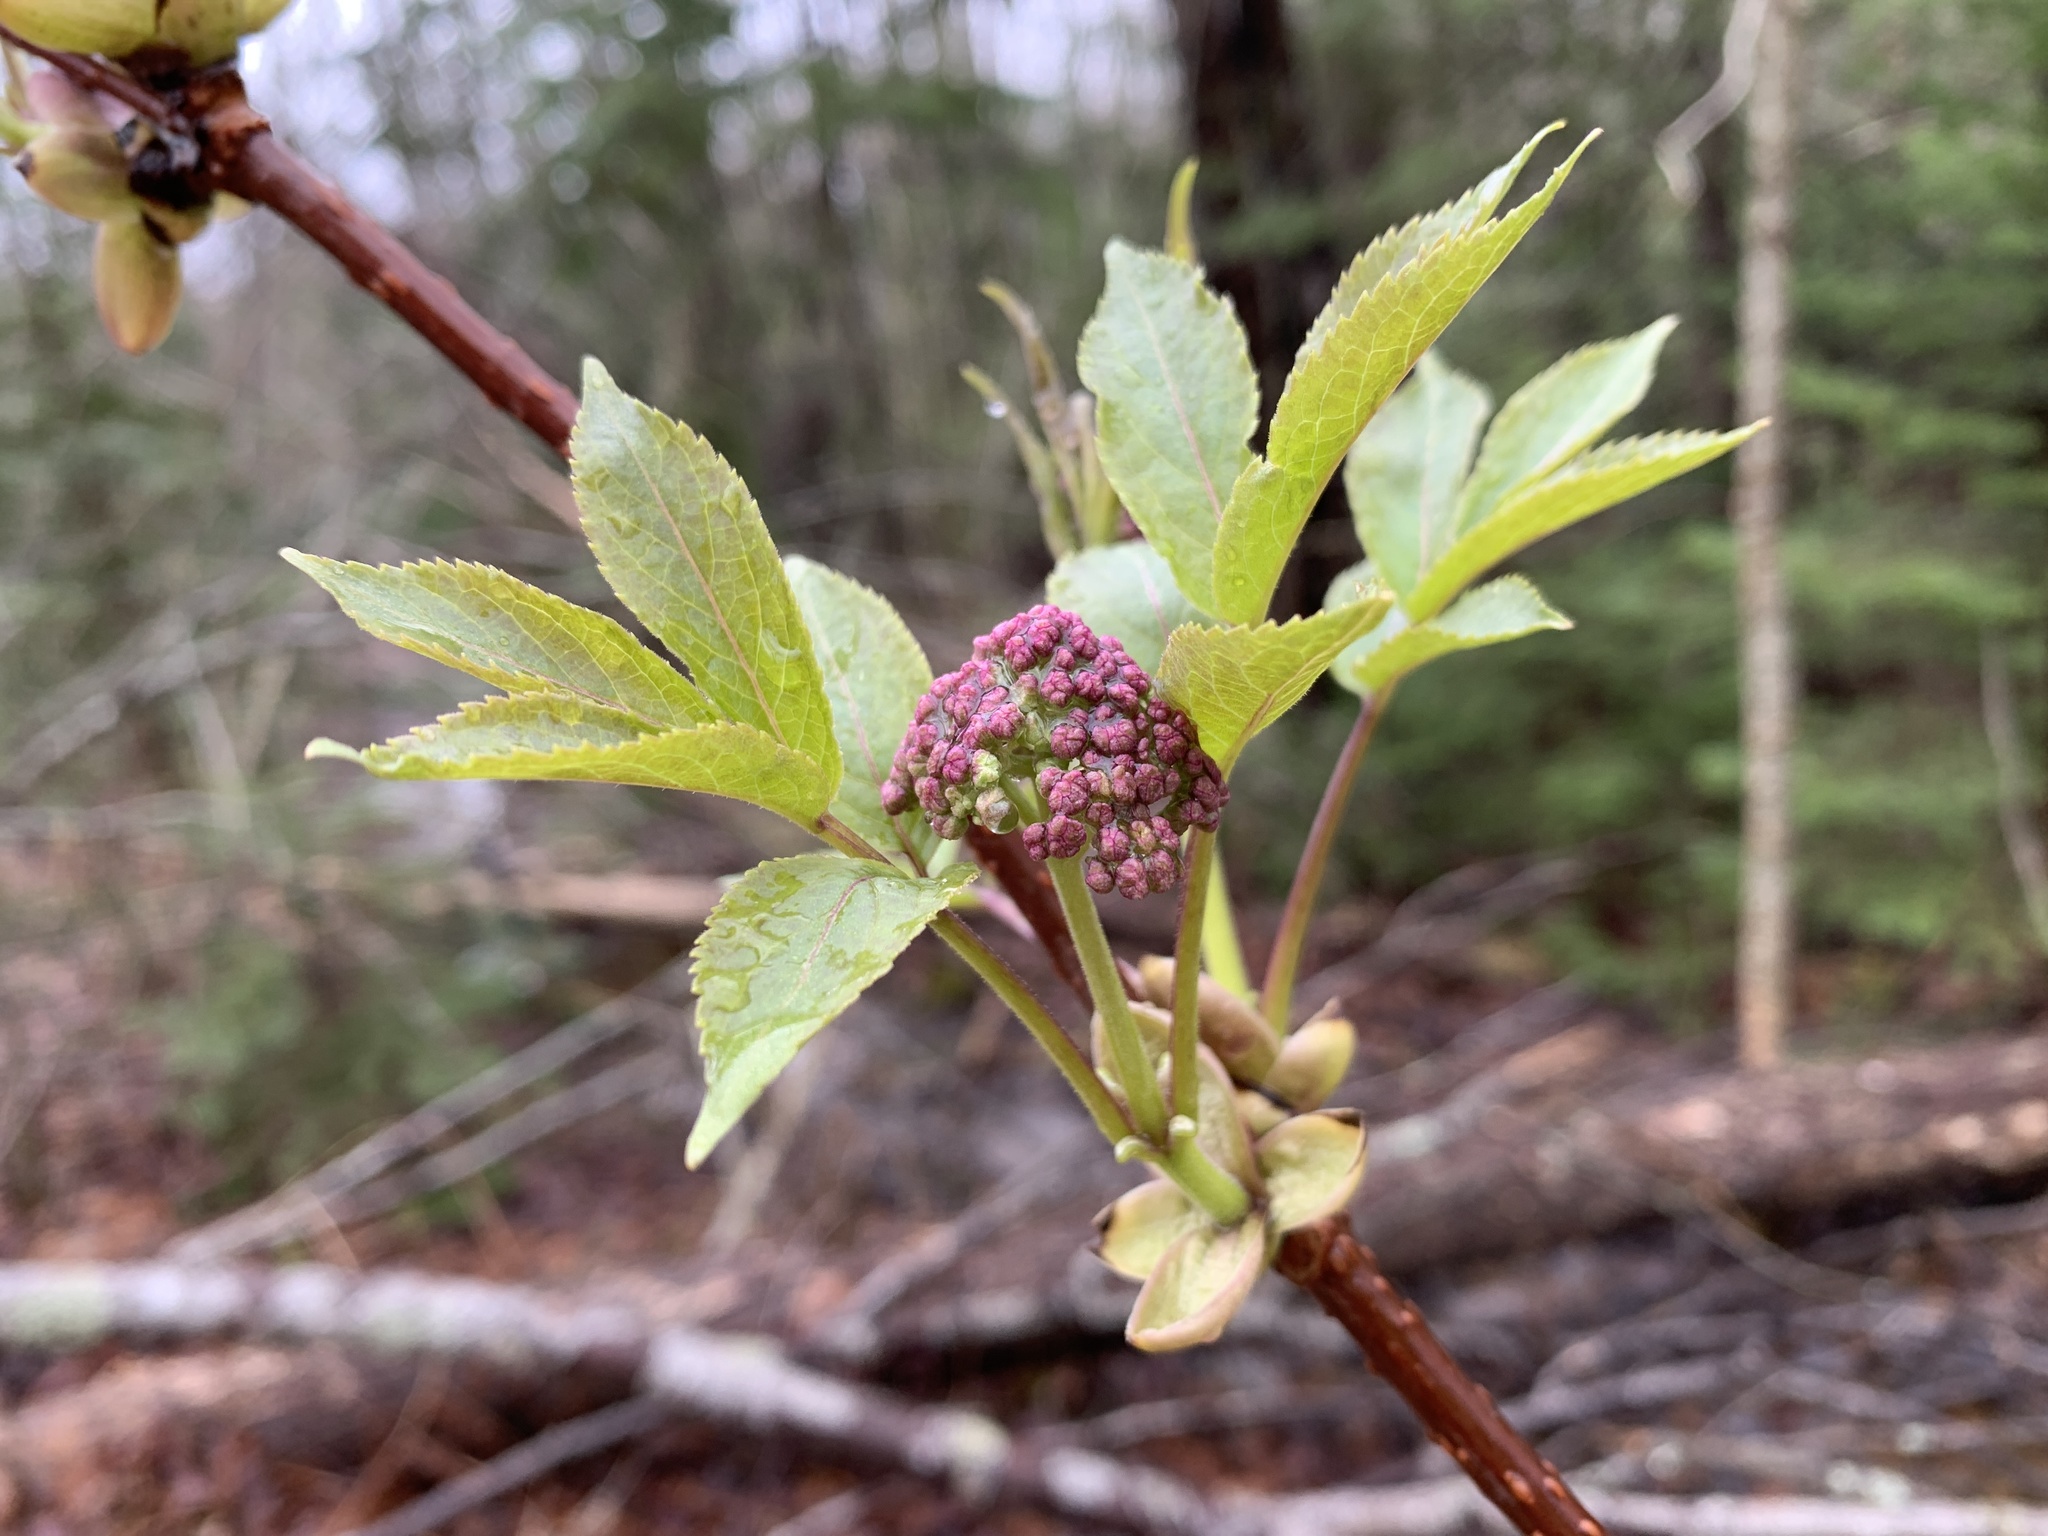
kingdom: Plantae
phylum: Tracheophyta
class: Magnoliopsida
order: Dipsacales
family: Viburnaceae
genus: Sambucus
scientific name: Sambucus racemosa
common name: Red-berried elder
